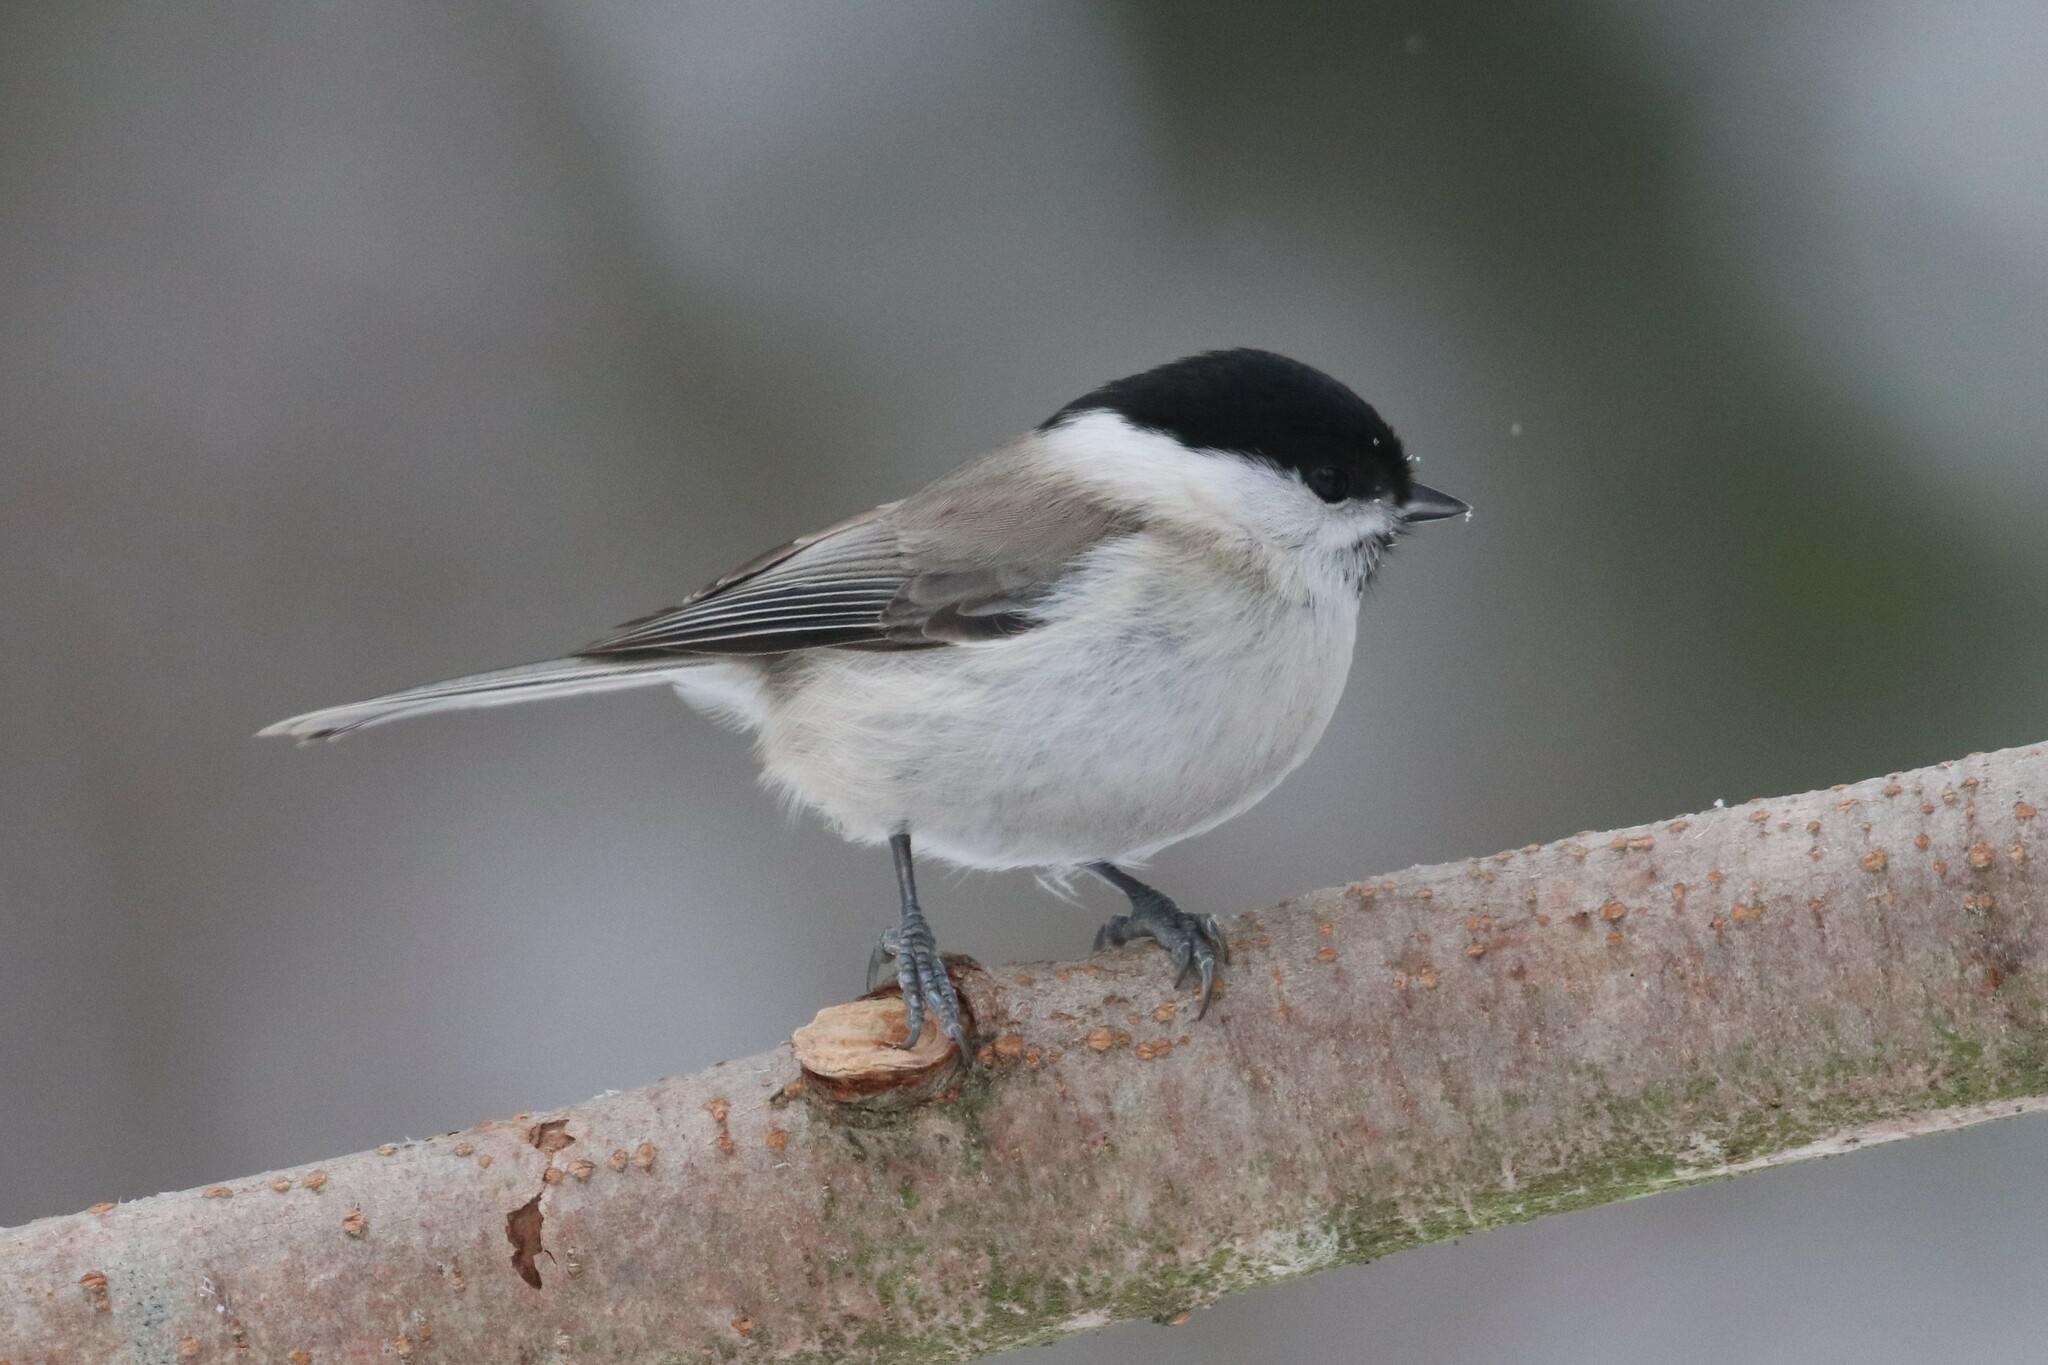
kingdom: Animalia
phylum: Chordata
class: Aves
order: Passeriformes
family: Paridae
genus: Poecile
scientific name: Poecile palustris
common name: Marsh tit
